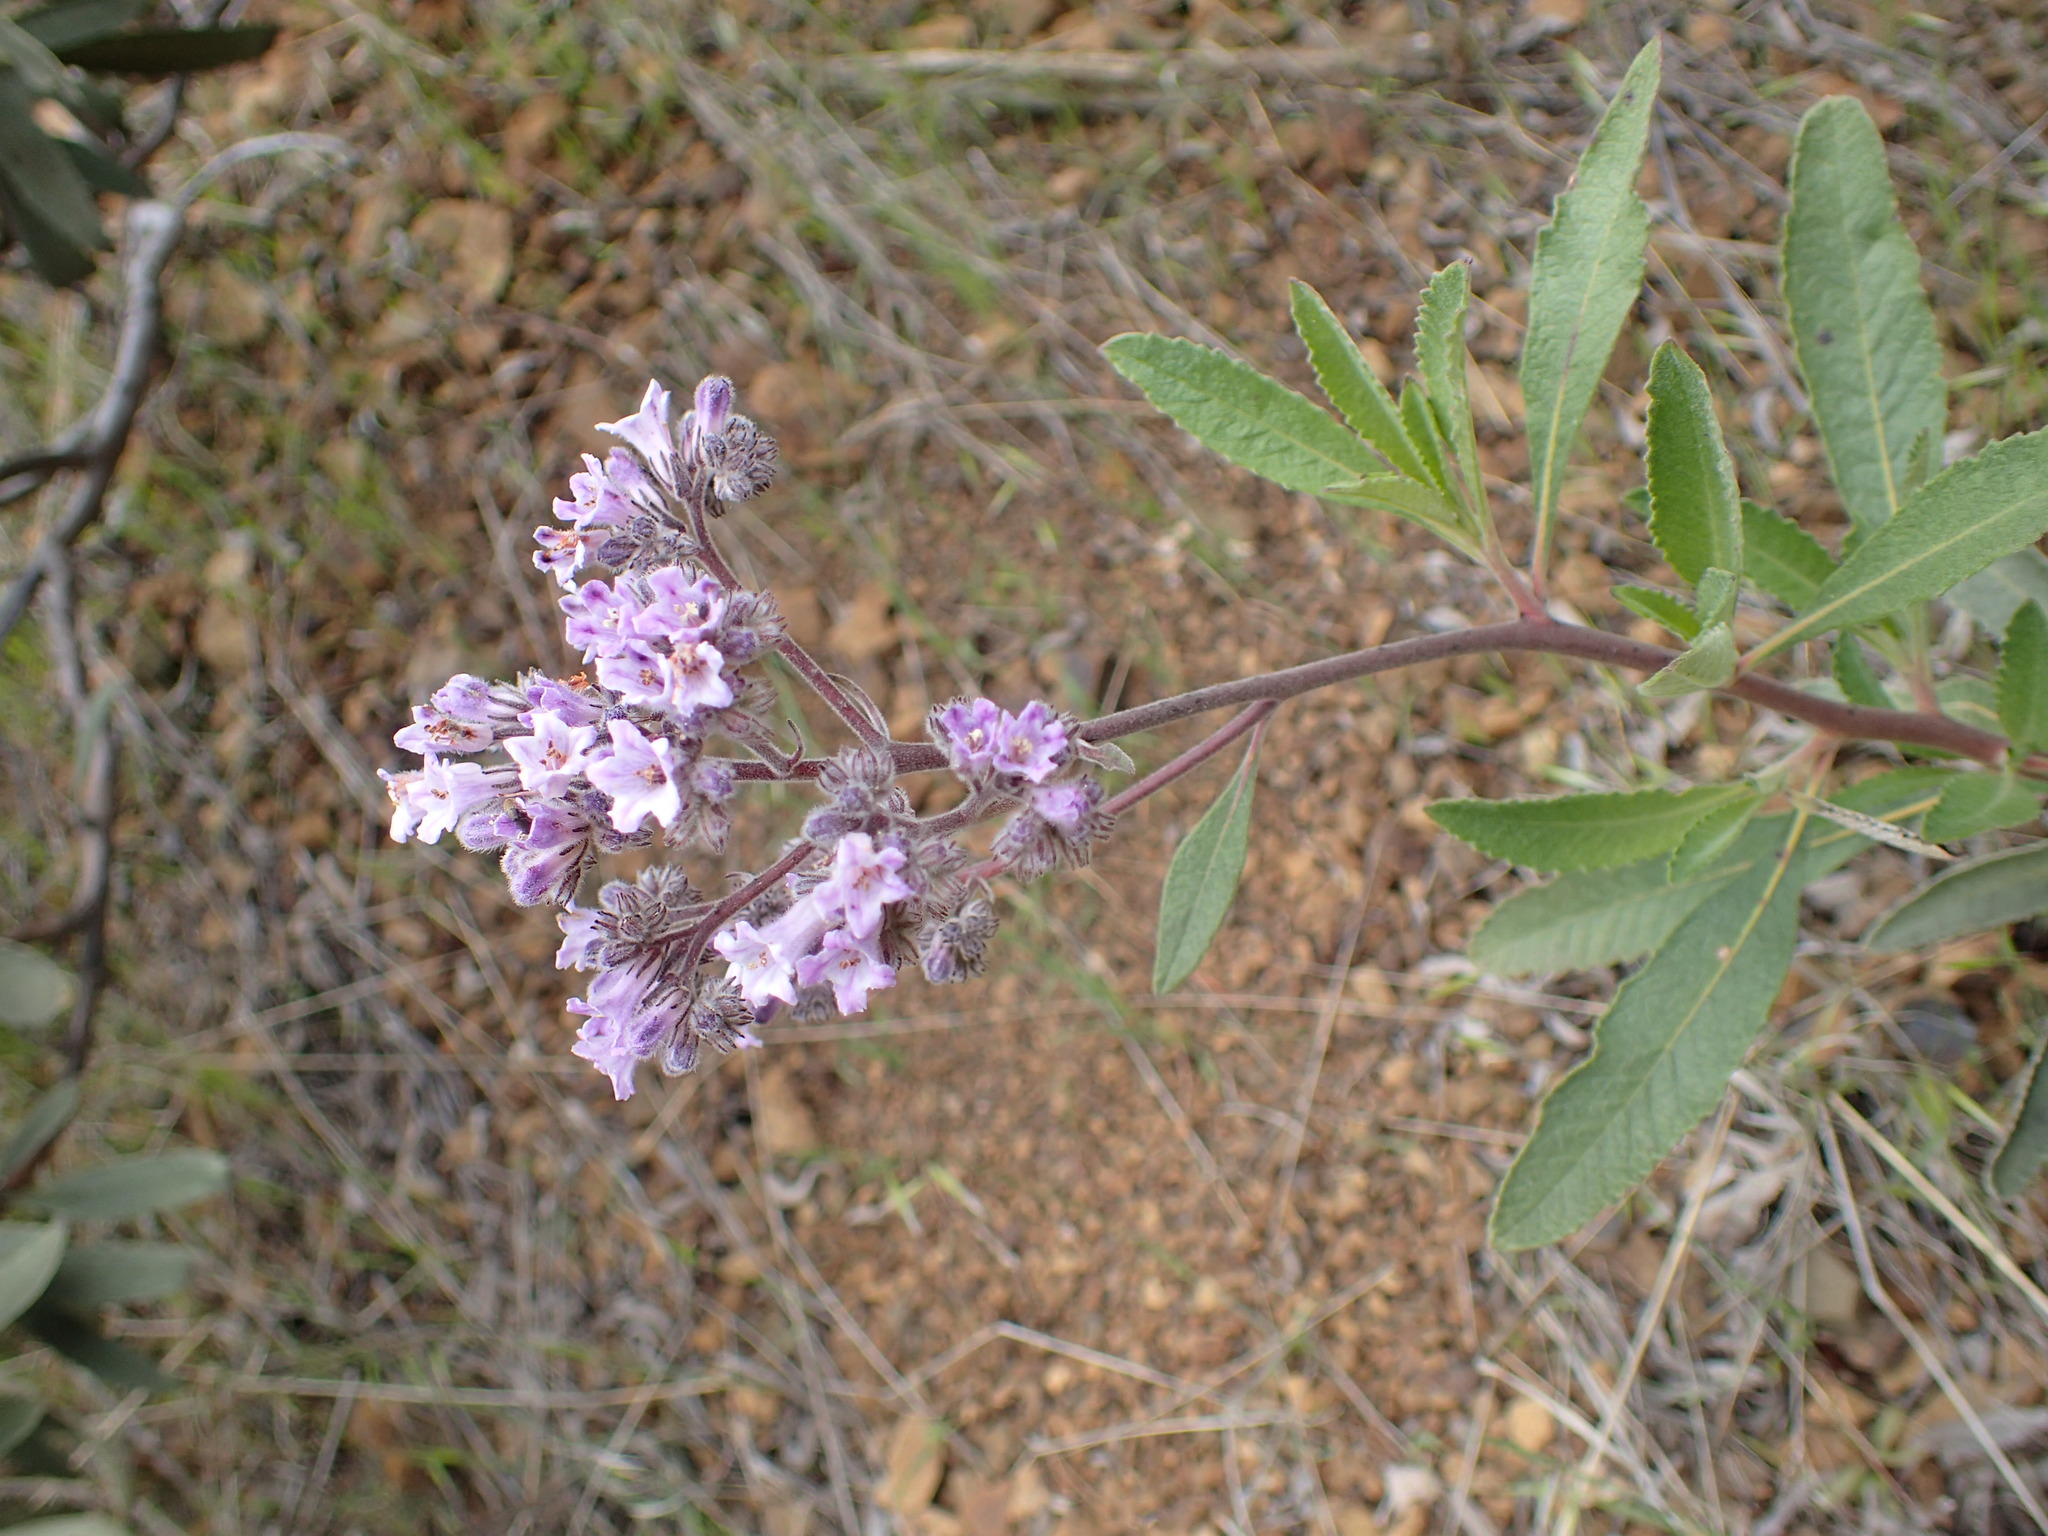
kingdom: Plantae
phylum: Tracheophyta
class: Magnoliopsida
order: Boraginales
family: Namaceae
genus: Eriodictyon
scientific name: Eriodictyon crassifolium
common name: Thick-leaf yerba-santa
